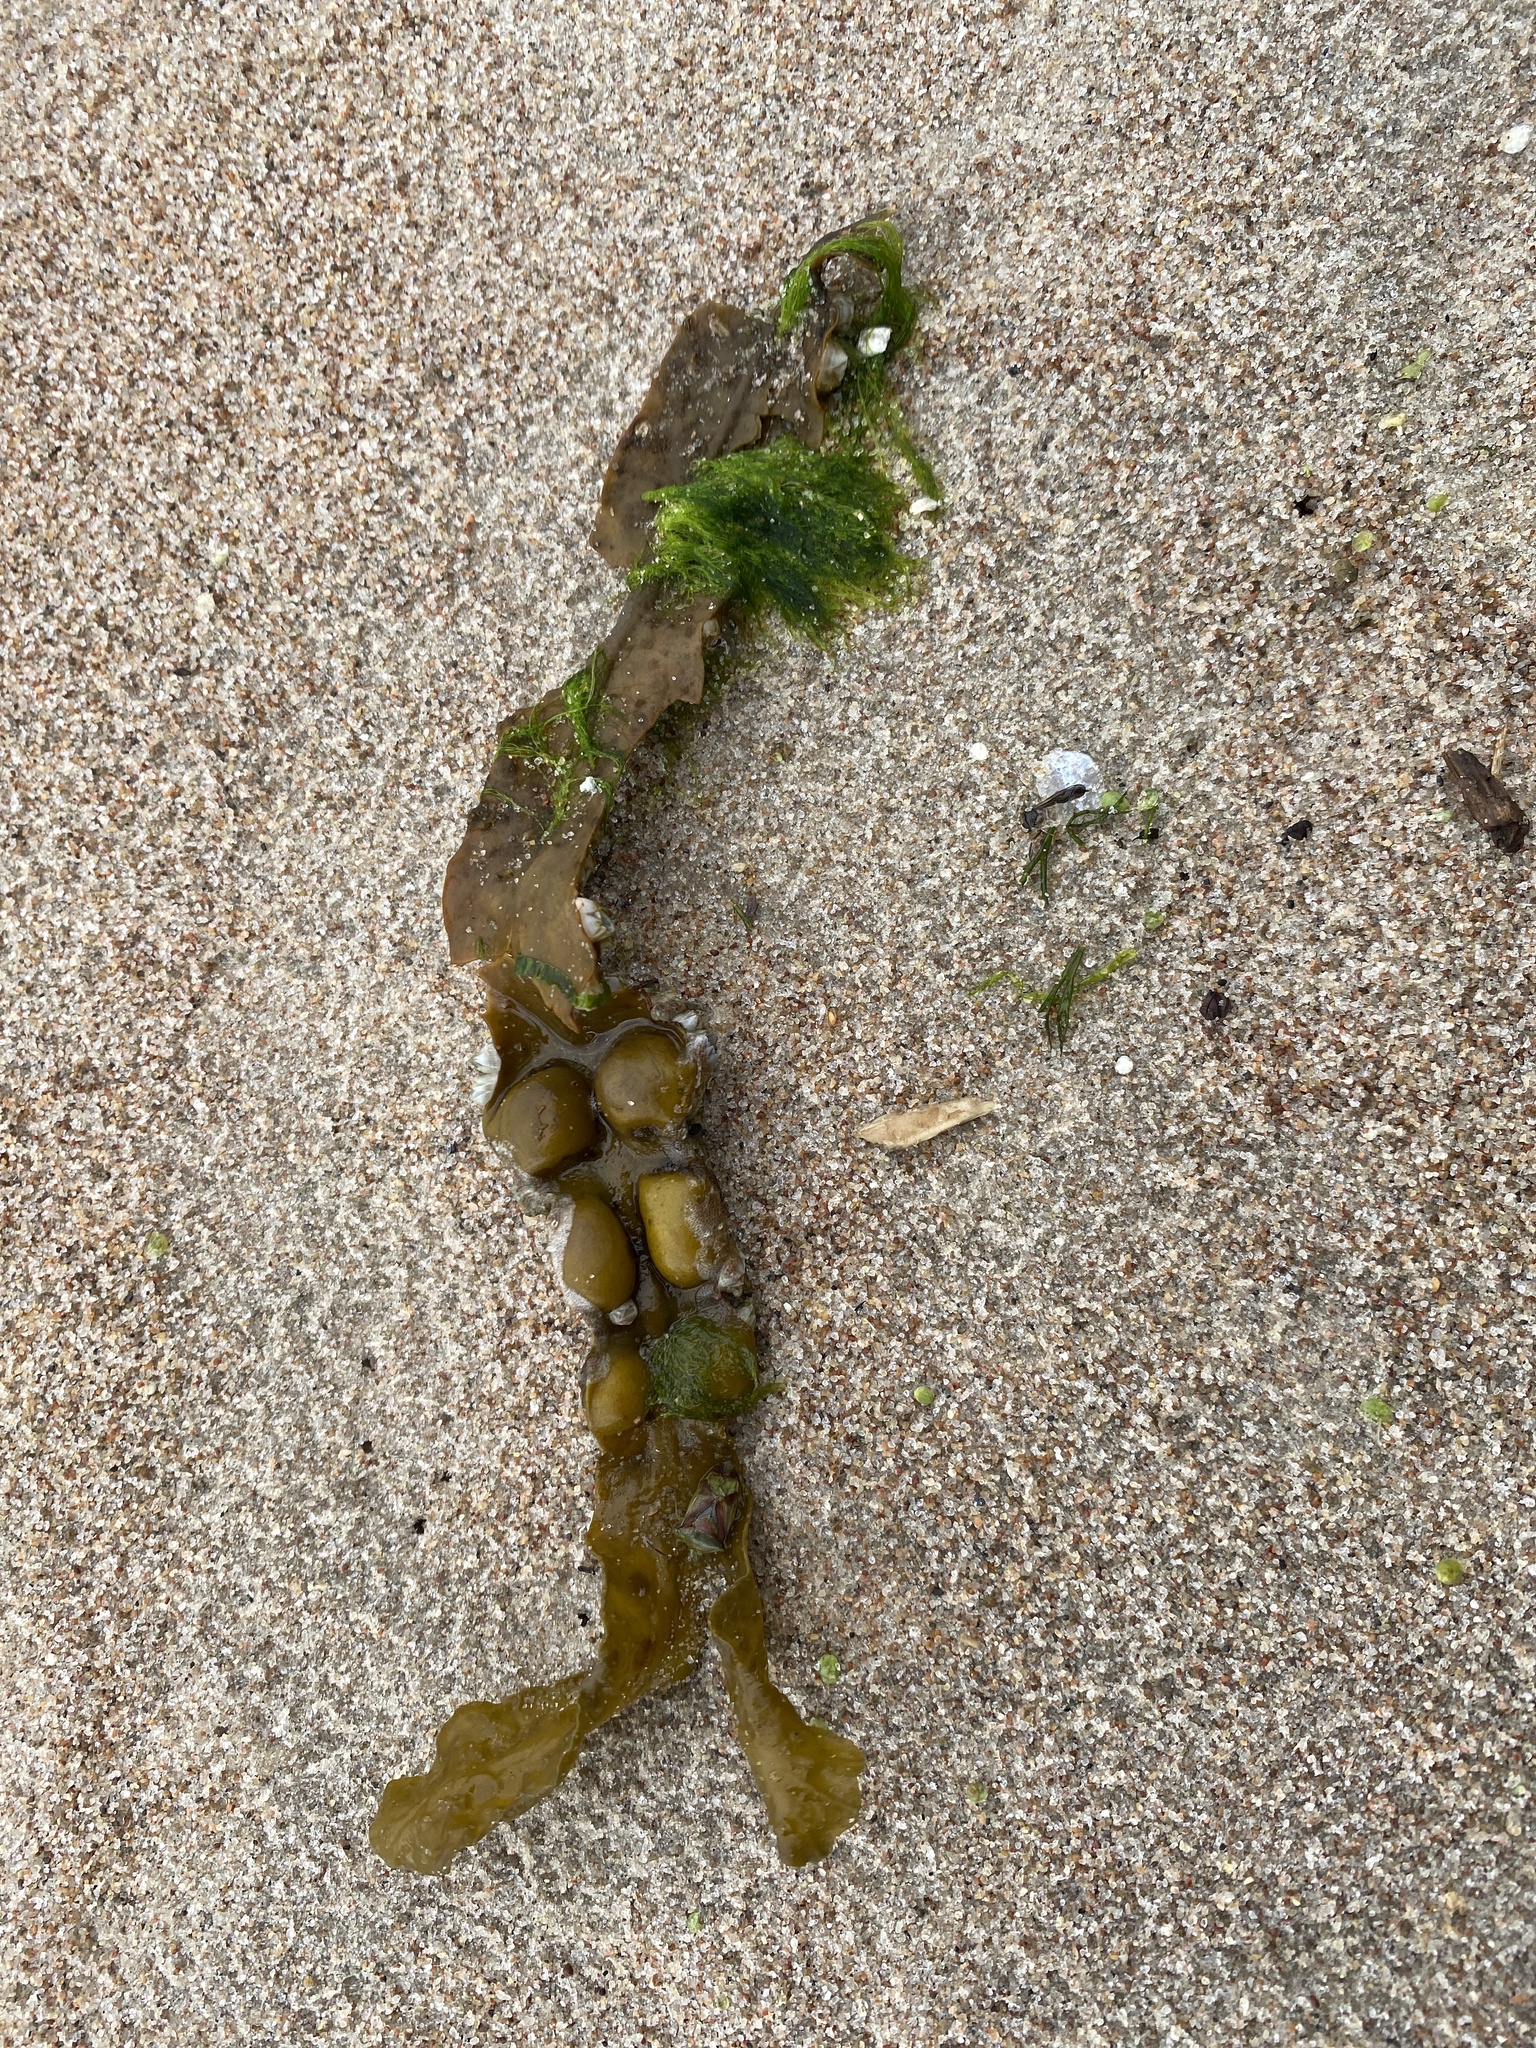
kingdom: Chromista
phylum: Ochrophyta
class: Phaeophyceae
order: Fucales
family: Fucaceae
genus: Fucus
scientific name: Fucus vesiculosus
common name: Bladder wrack
